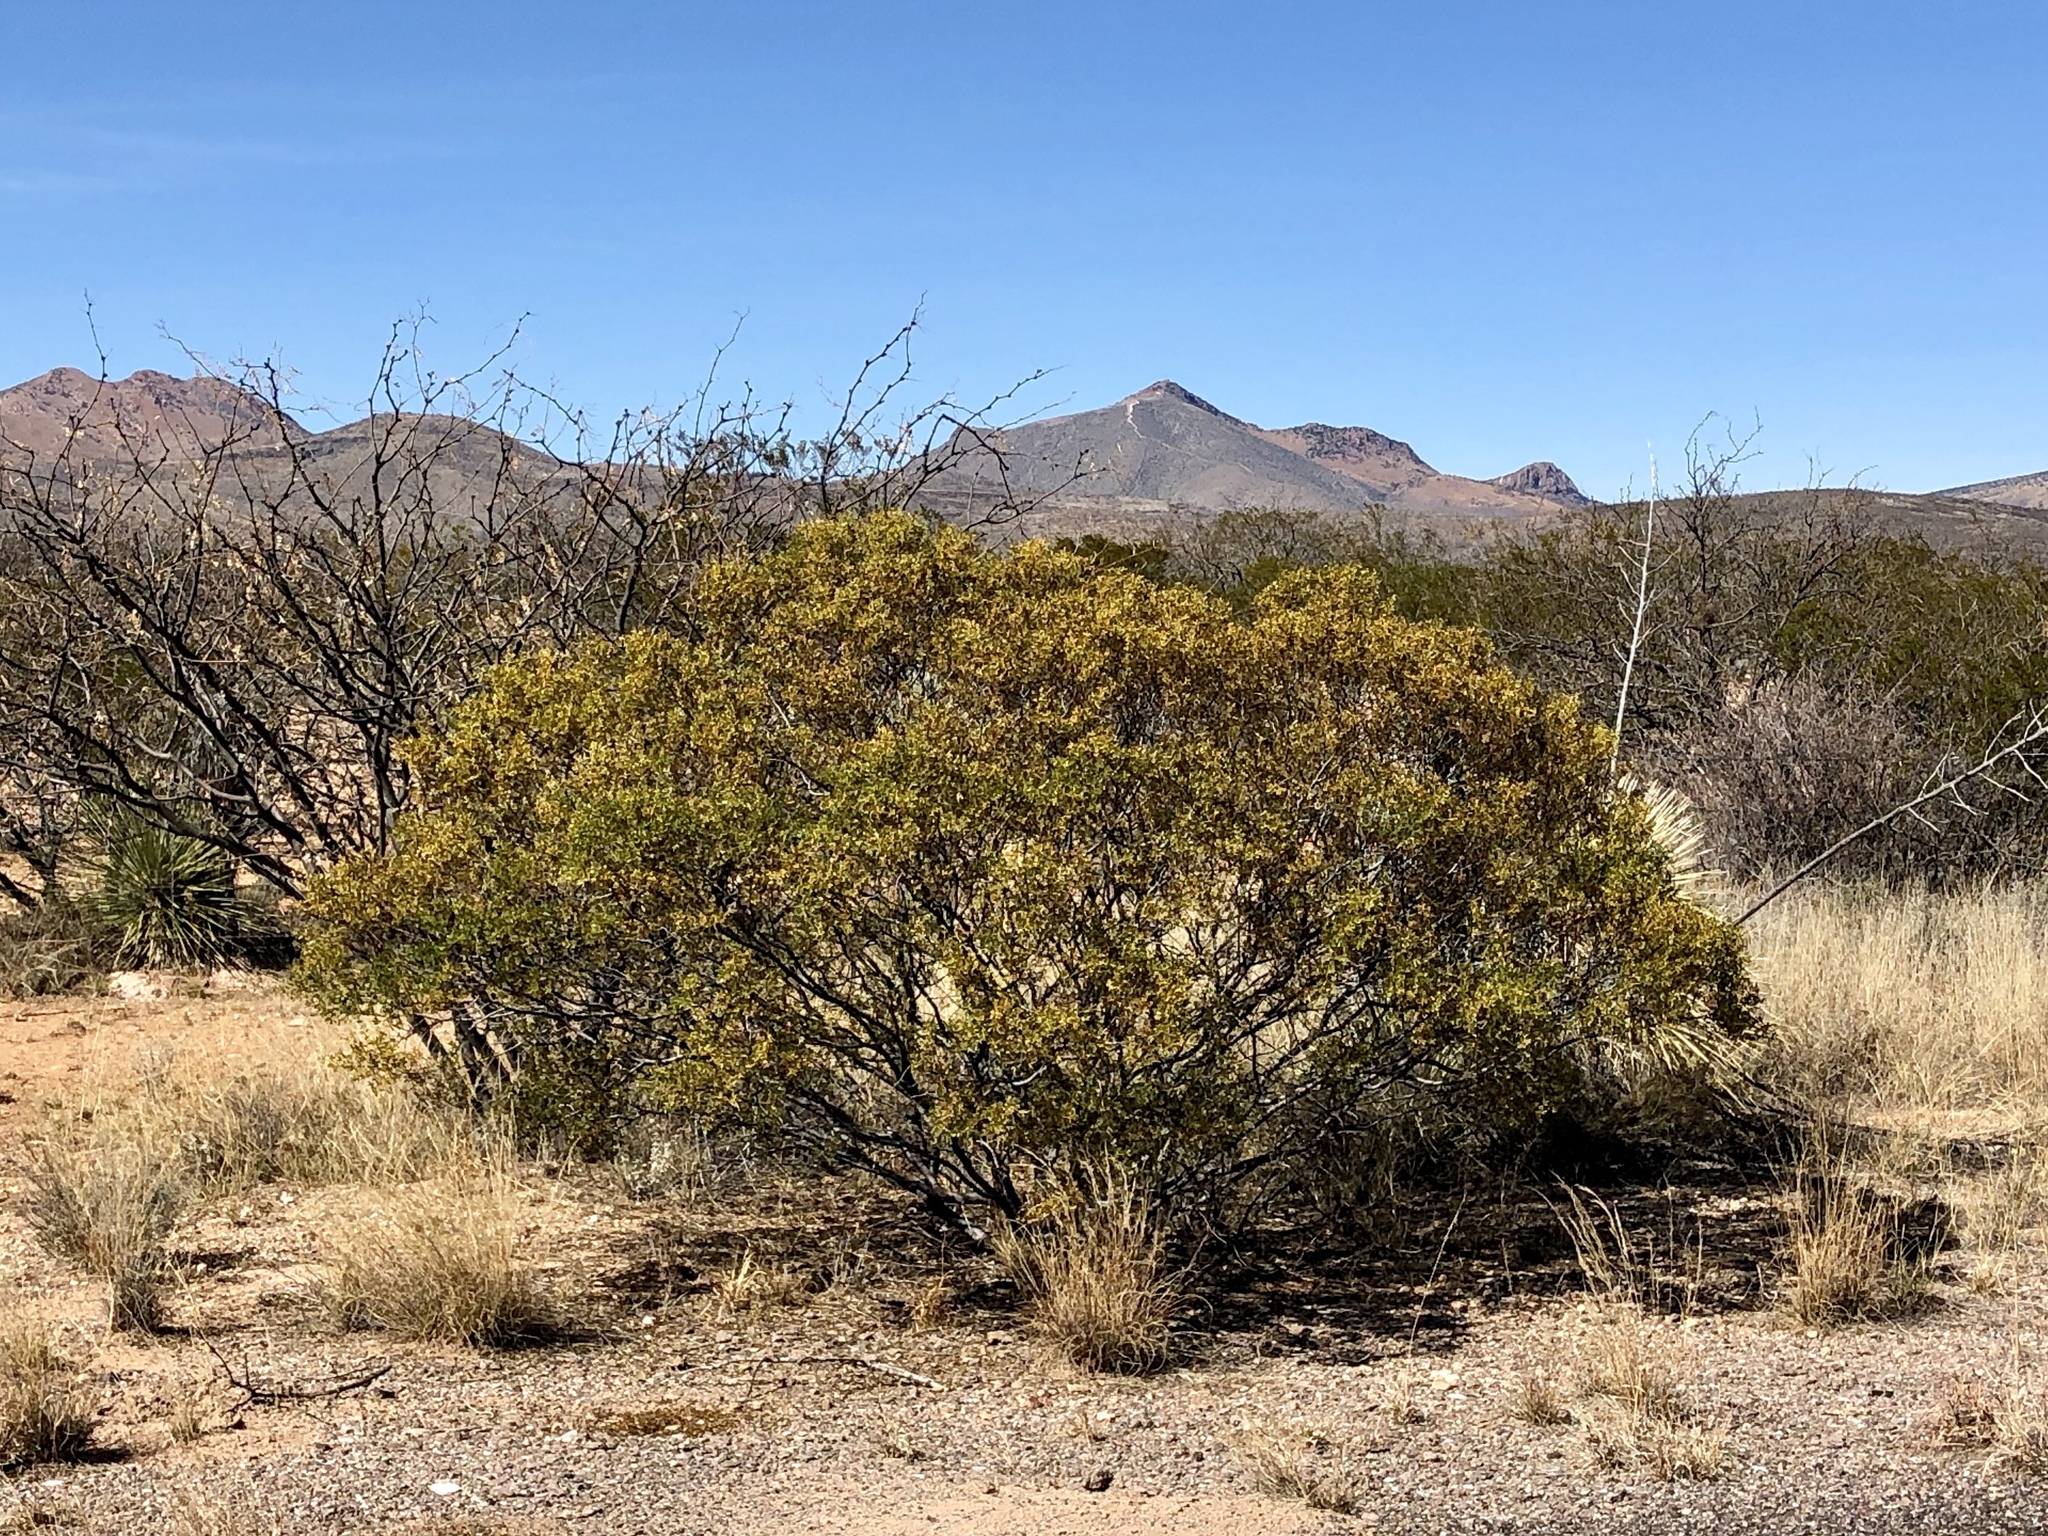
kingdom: Plantae
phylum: Tracheophyta
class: Magnoliopsida
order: Zygophyllales
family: Zygophyllaceae
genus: Larrea
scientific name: Larrea tridentata
